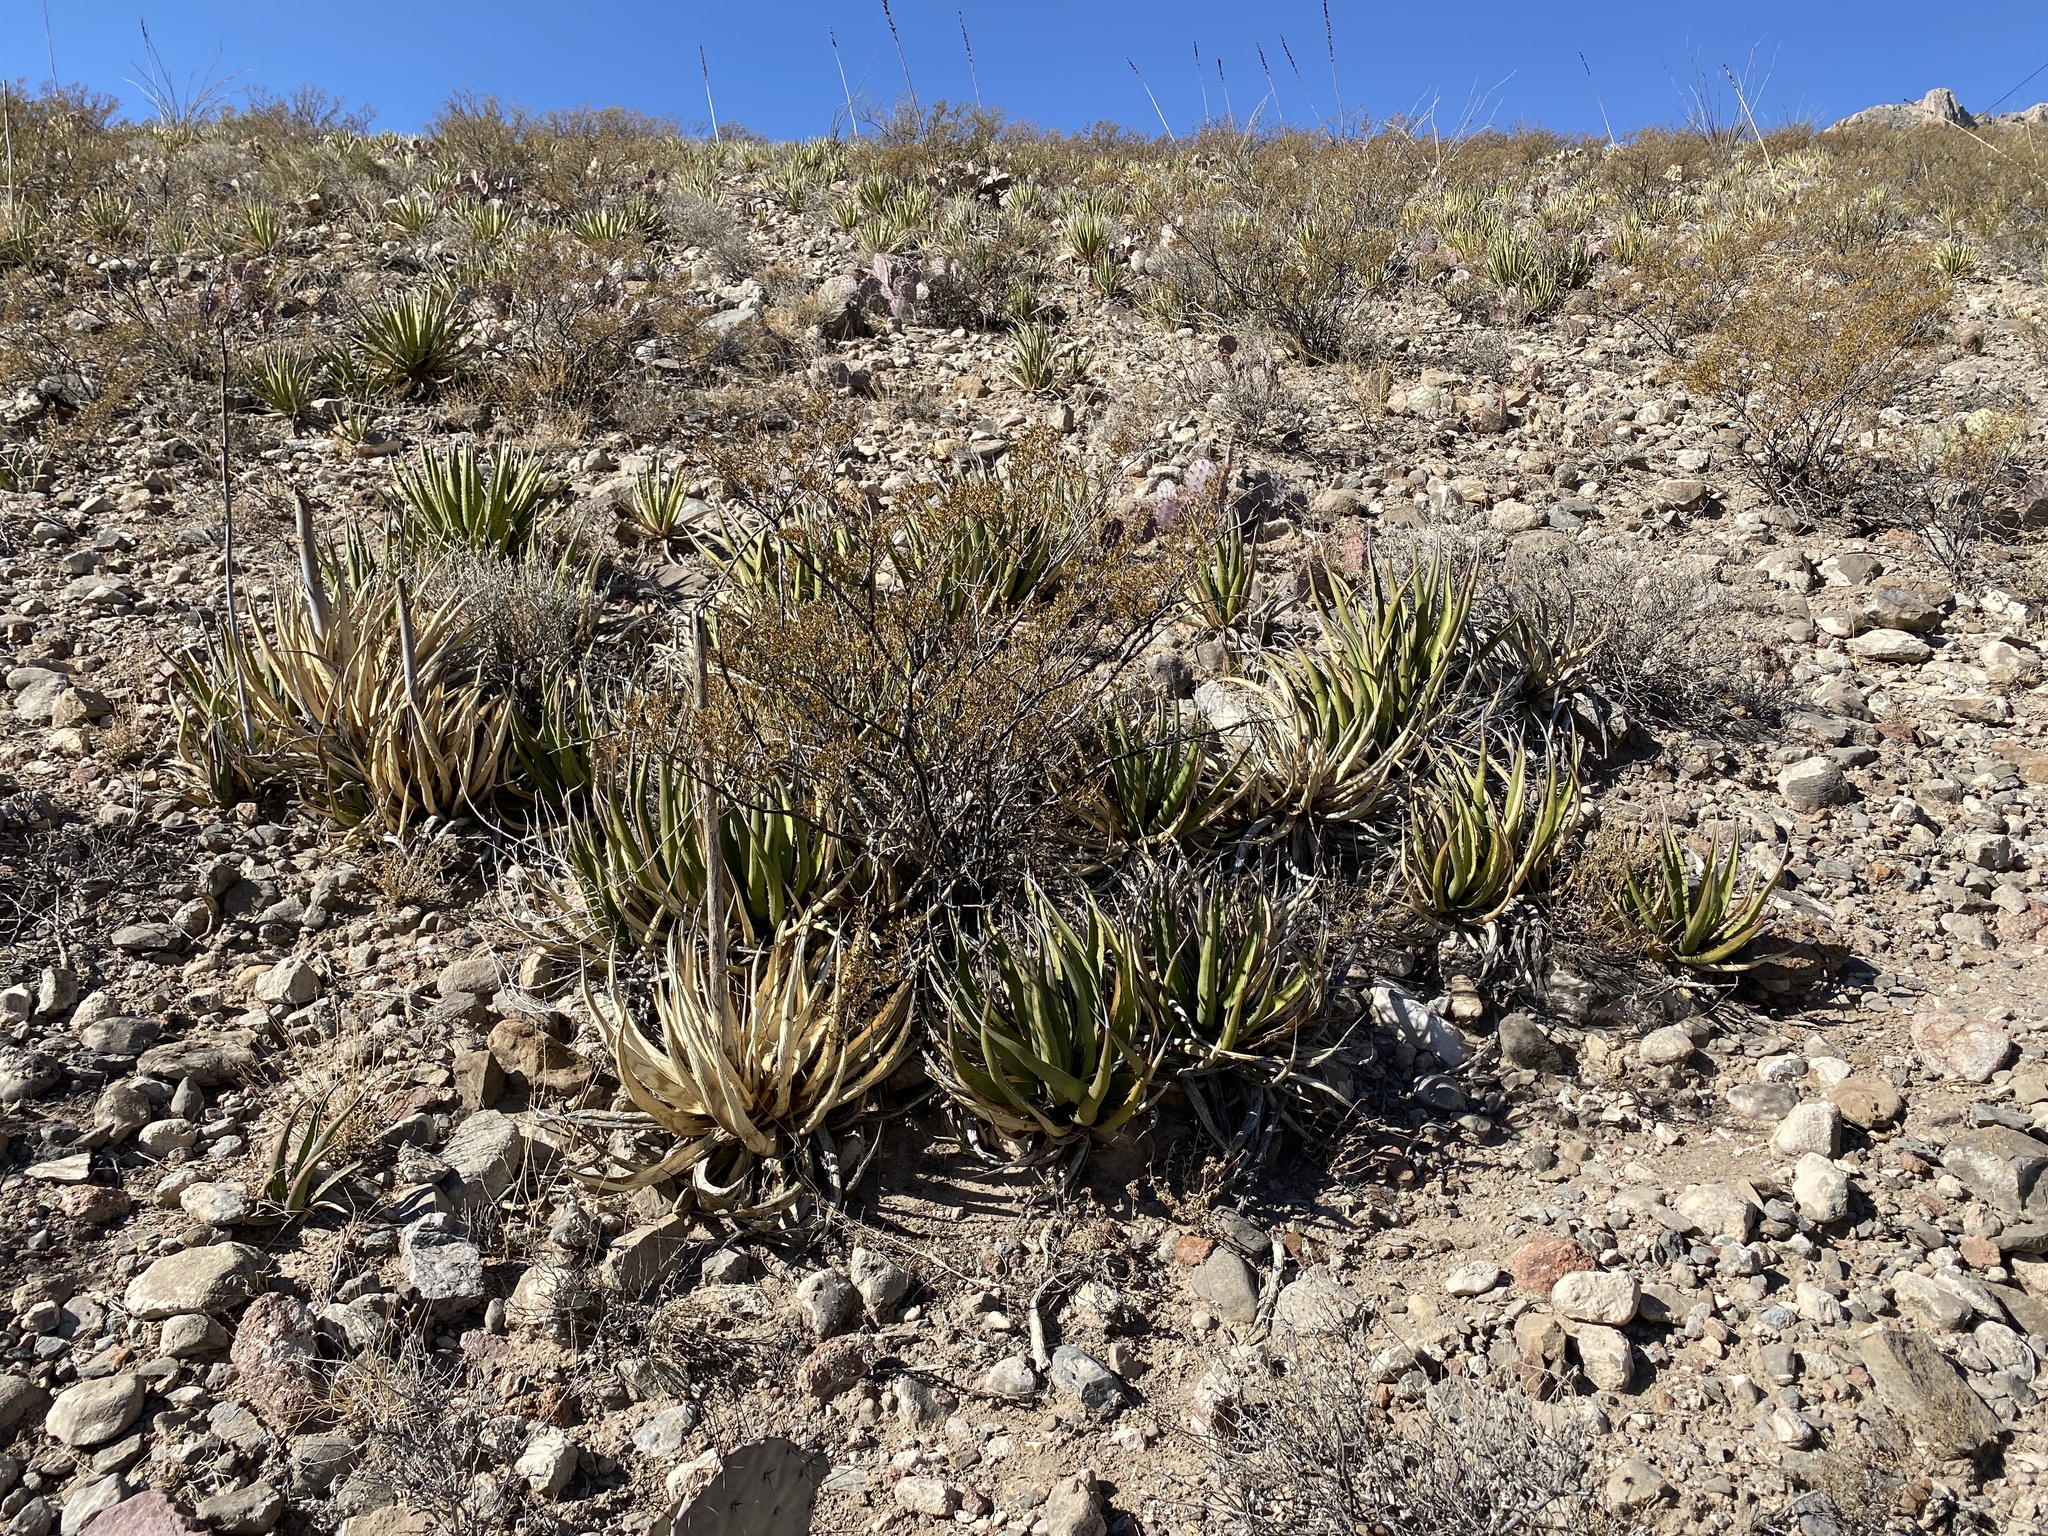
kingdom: Plantae
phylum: Tracheophyta
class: Liliopsida
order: Asparagales
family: Asparagaceae
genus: Agave
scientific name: Agave lechuguilla
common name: Lecheguilla agave
